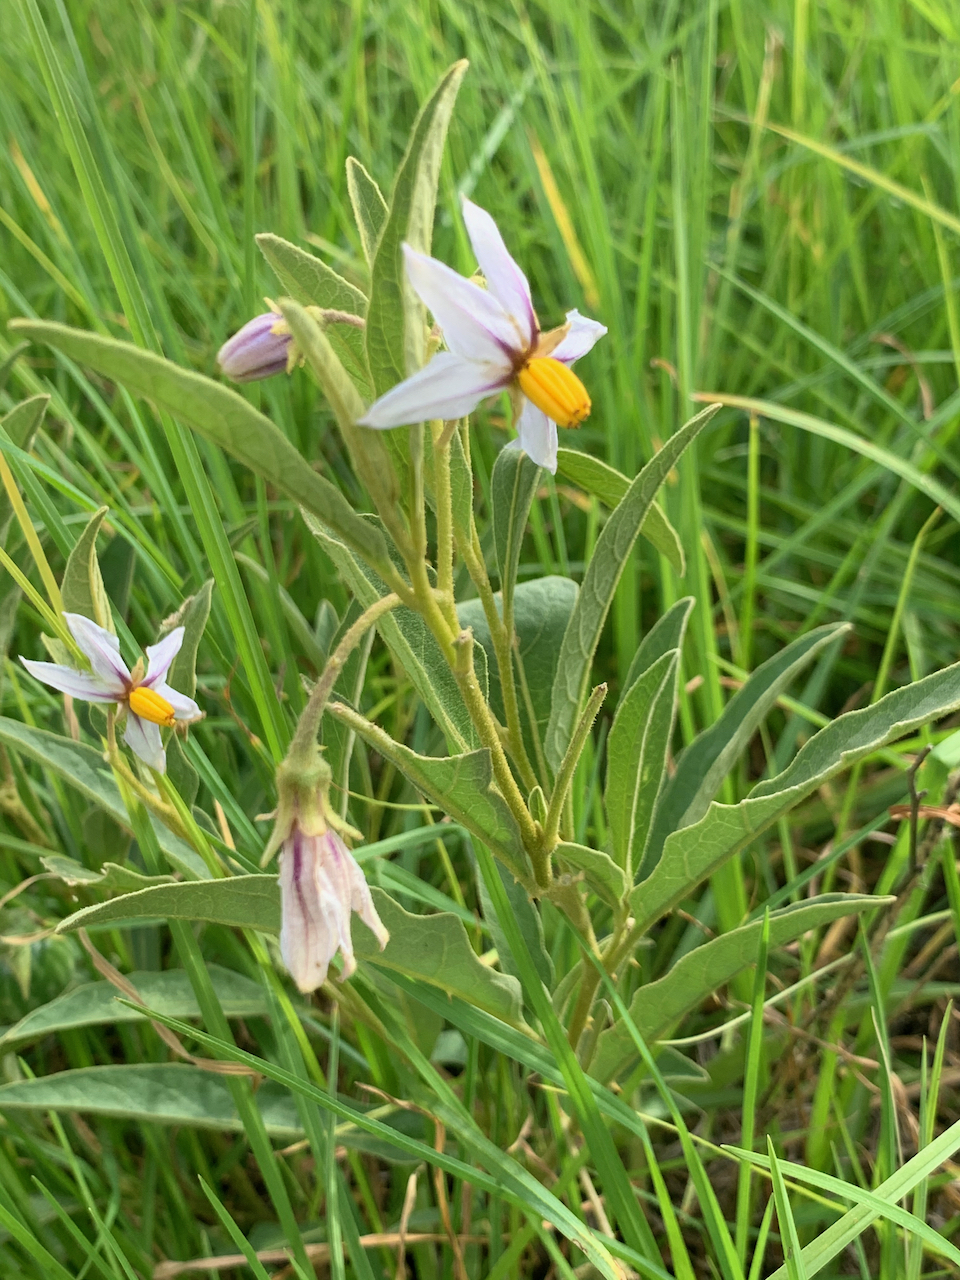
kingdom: Plantae
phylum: Tracheophyta
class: Magnoliopsida
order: Solanales
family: Solanaceae
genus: Solanum
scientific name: Solanum campylacanthum
